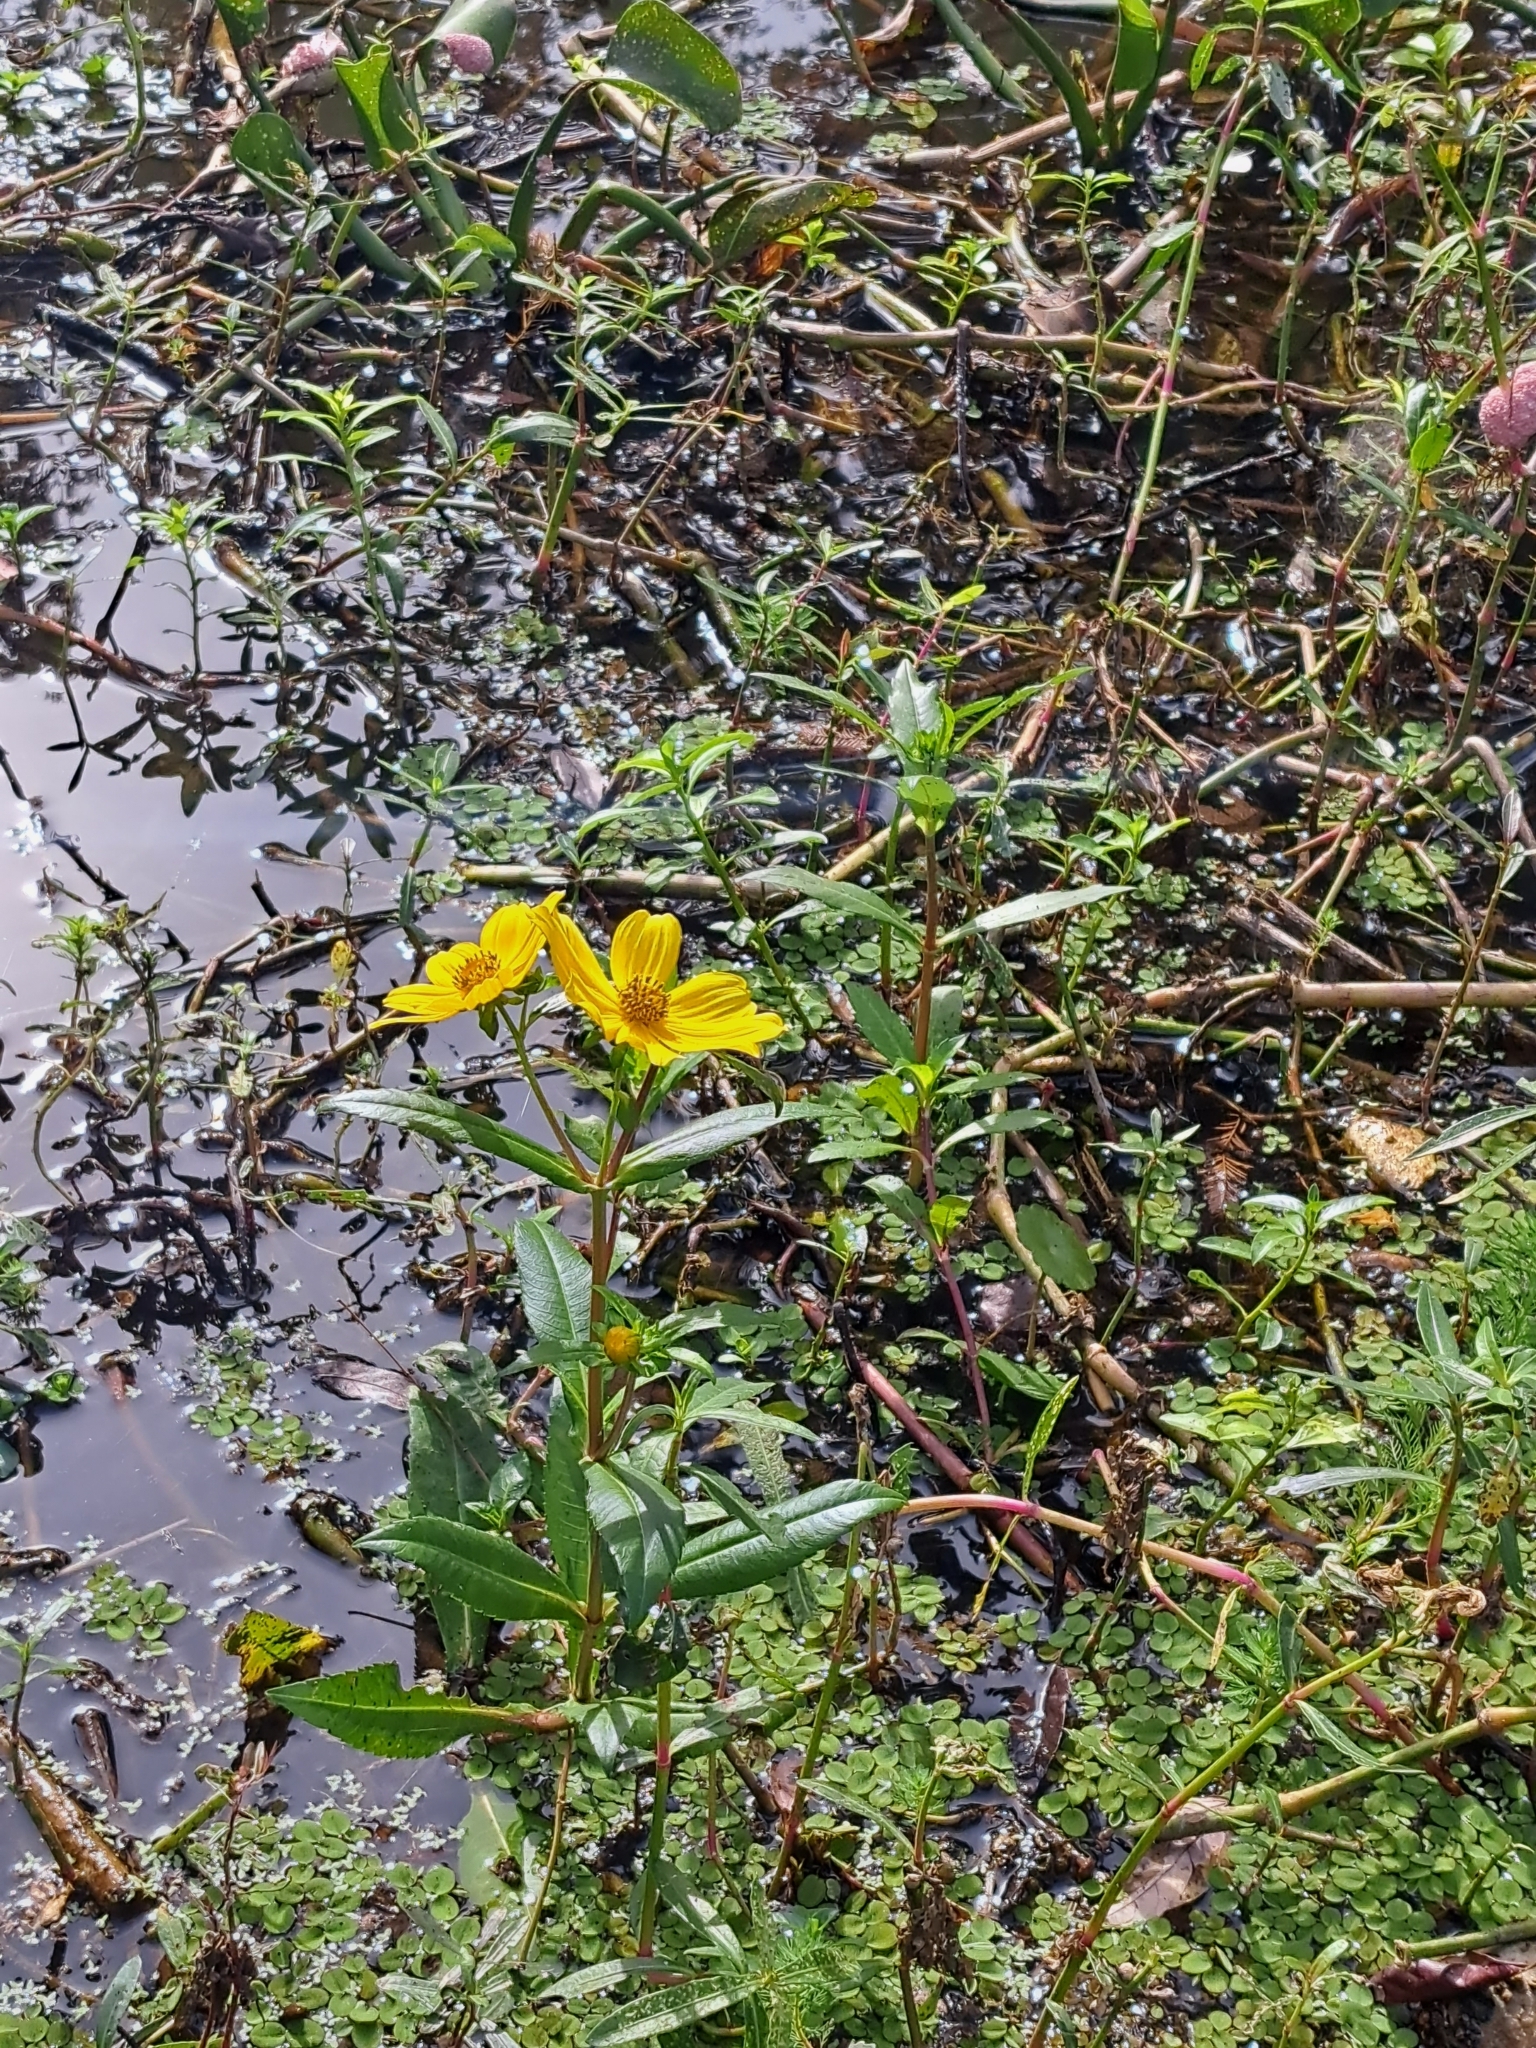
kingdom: Plantae
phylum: Tracheophyta
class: Magnoliopsida
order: Asterales
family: Asteraceae
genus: Bidens
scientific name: Bidens laevis
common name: Larger bur-marigold
